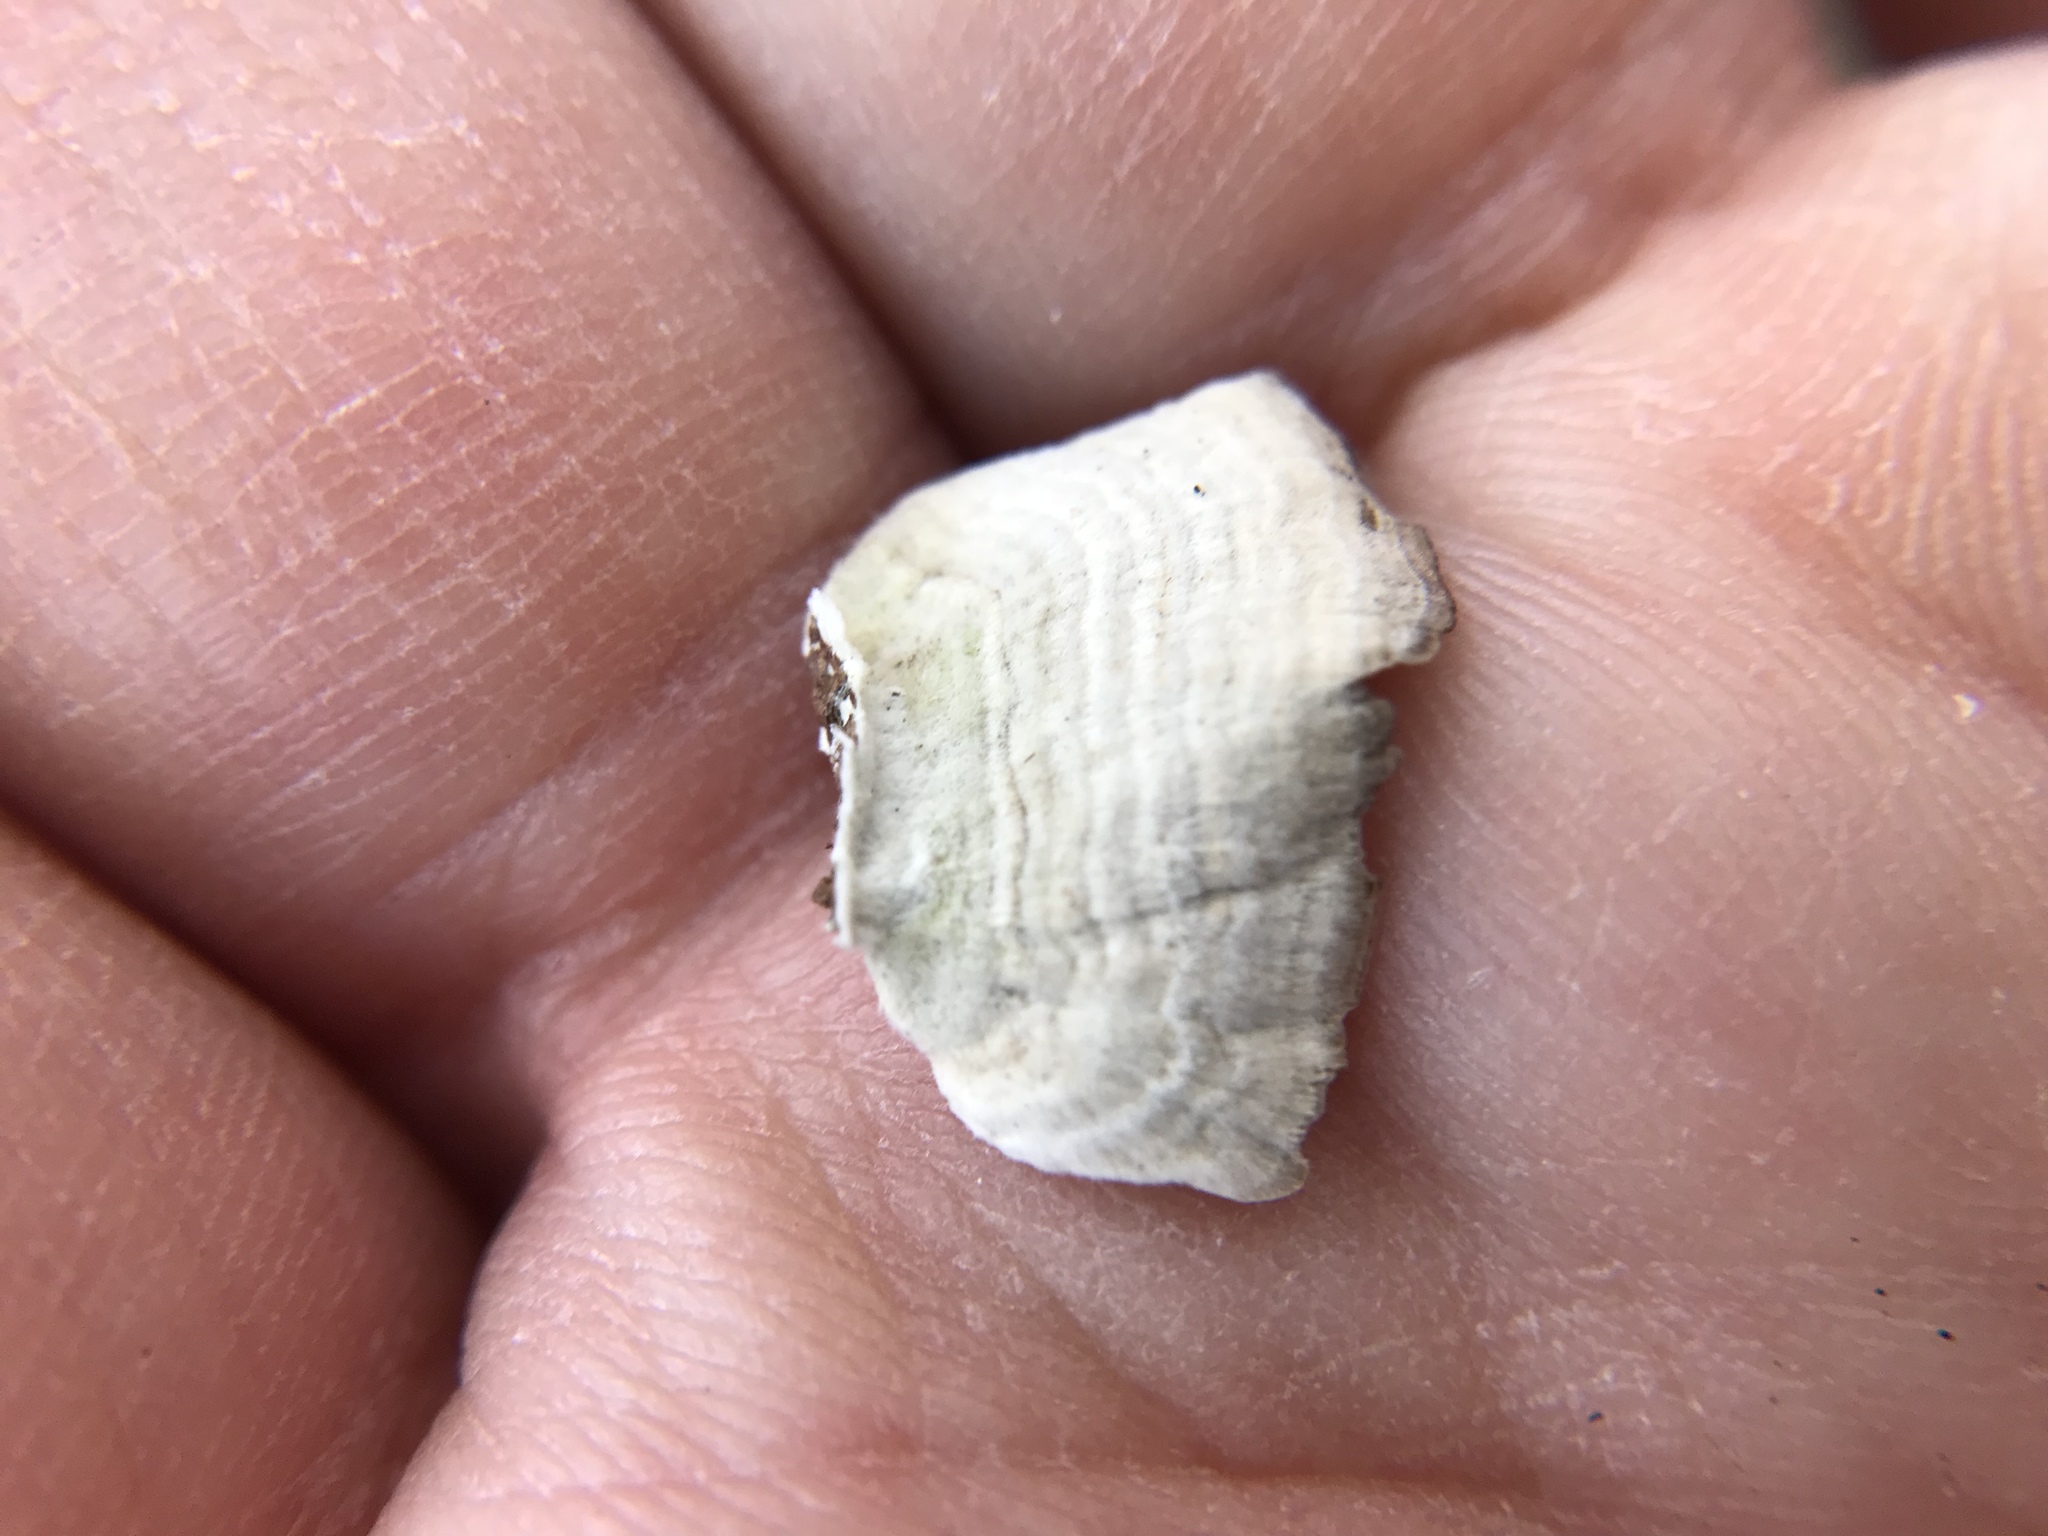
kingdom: Fungi
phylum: Basidiomycota
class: Agaricomycetes
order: Hymenochaetales
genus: Trichaptum
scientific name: Trichaptum biforme
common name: Violet-toothed polypore
